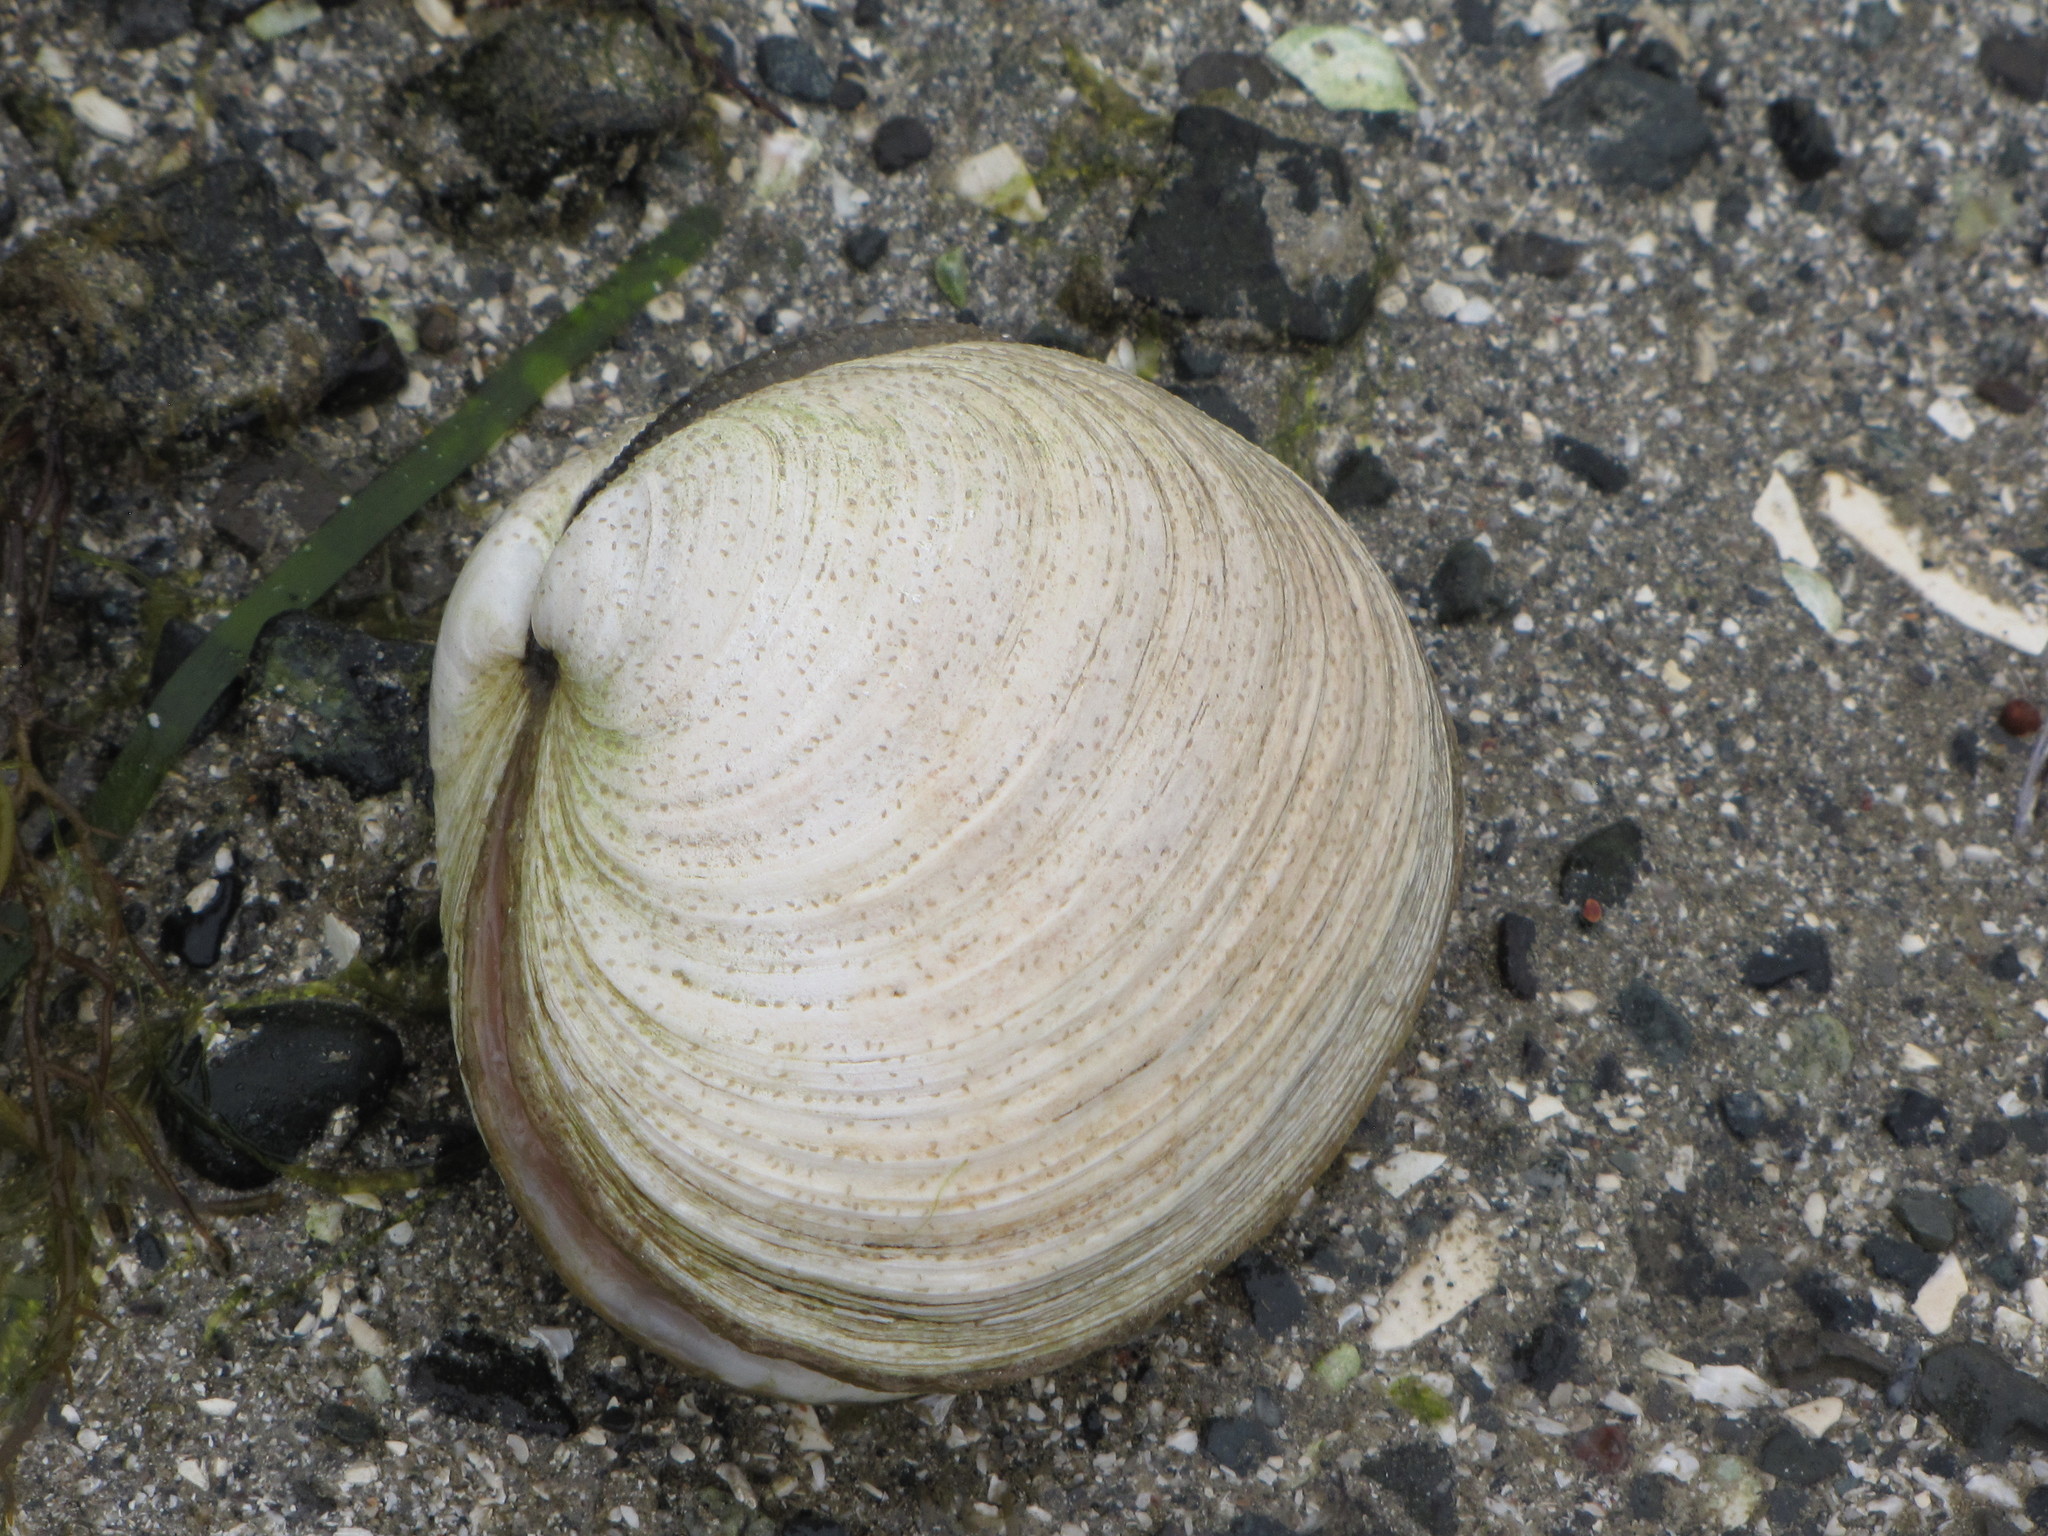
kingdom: Animalia
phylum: Mollusca
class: Bivalvia
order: Venerida
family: Veneridae
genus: Saxidomus
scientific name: Saxidomus gigantea
